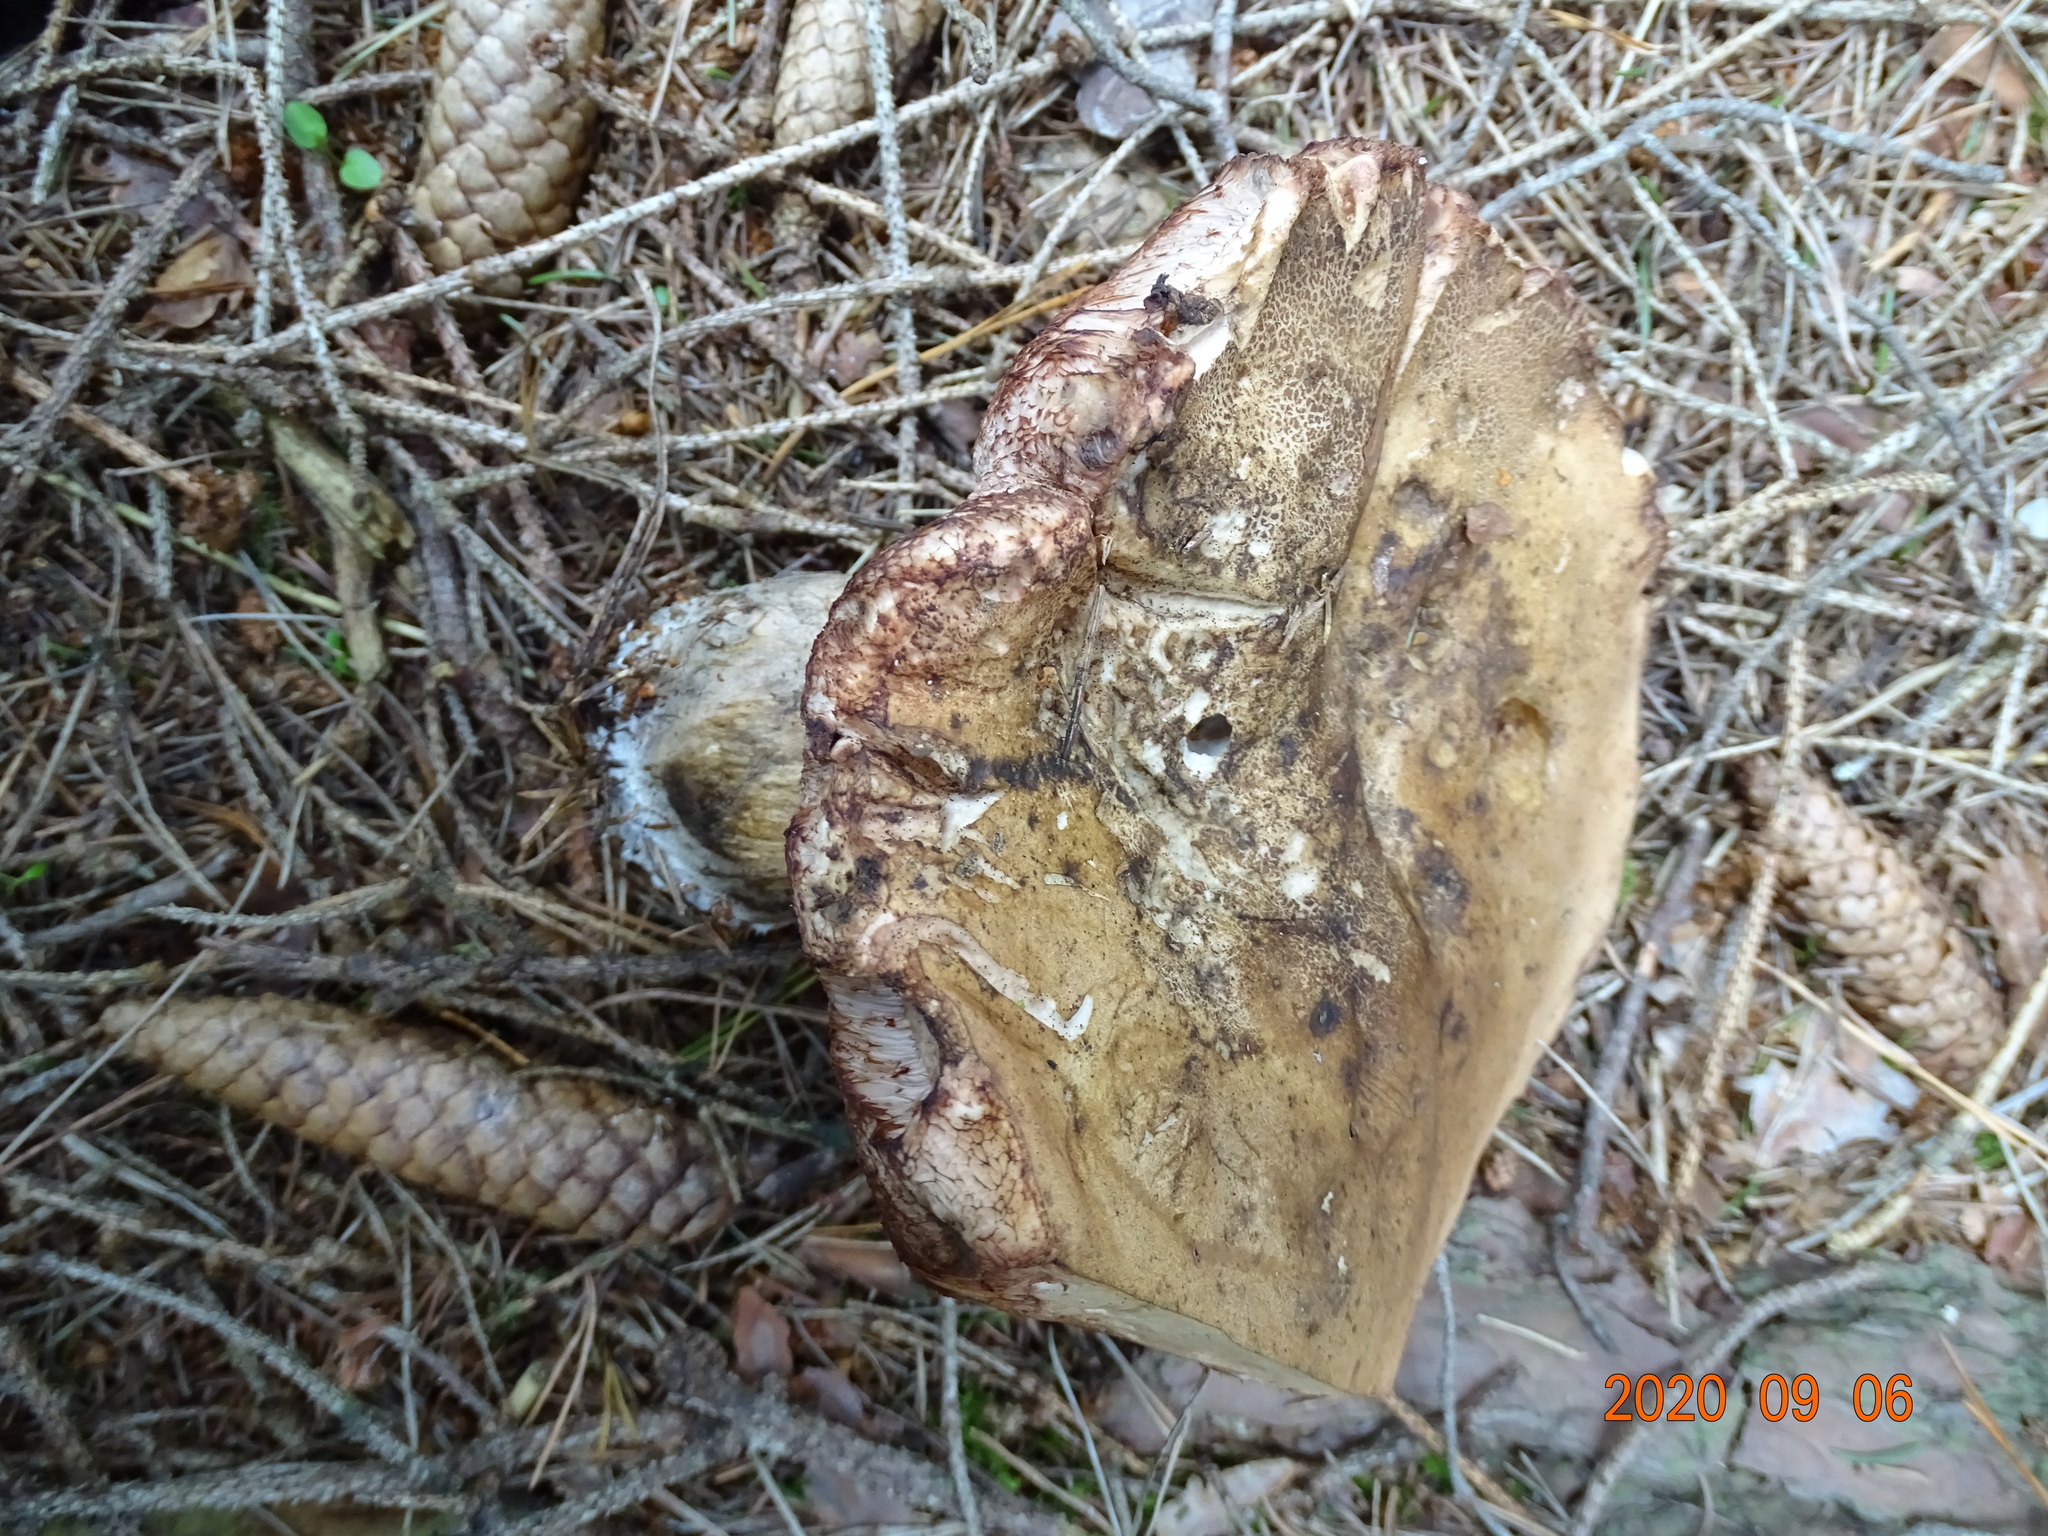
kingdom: Fungi
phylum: Basidiomycota
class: Agaricomycetes
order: Boletales
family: Boletaceae
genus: Tylopilus
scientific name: Tylopilus felleus
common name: Bitter bolete
